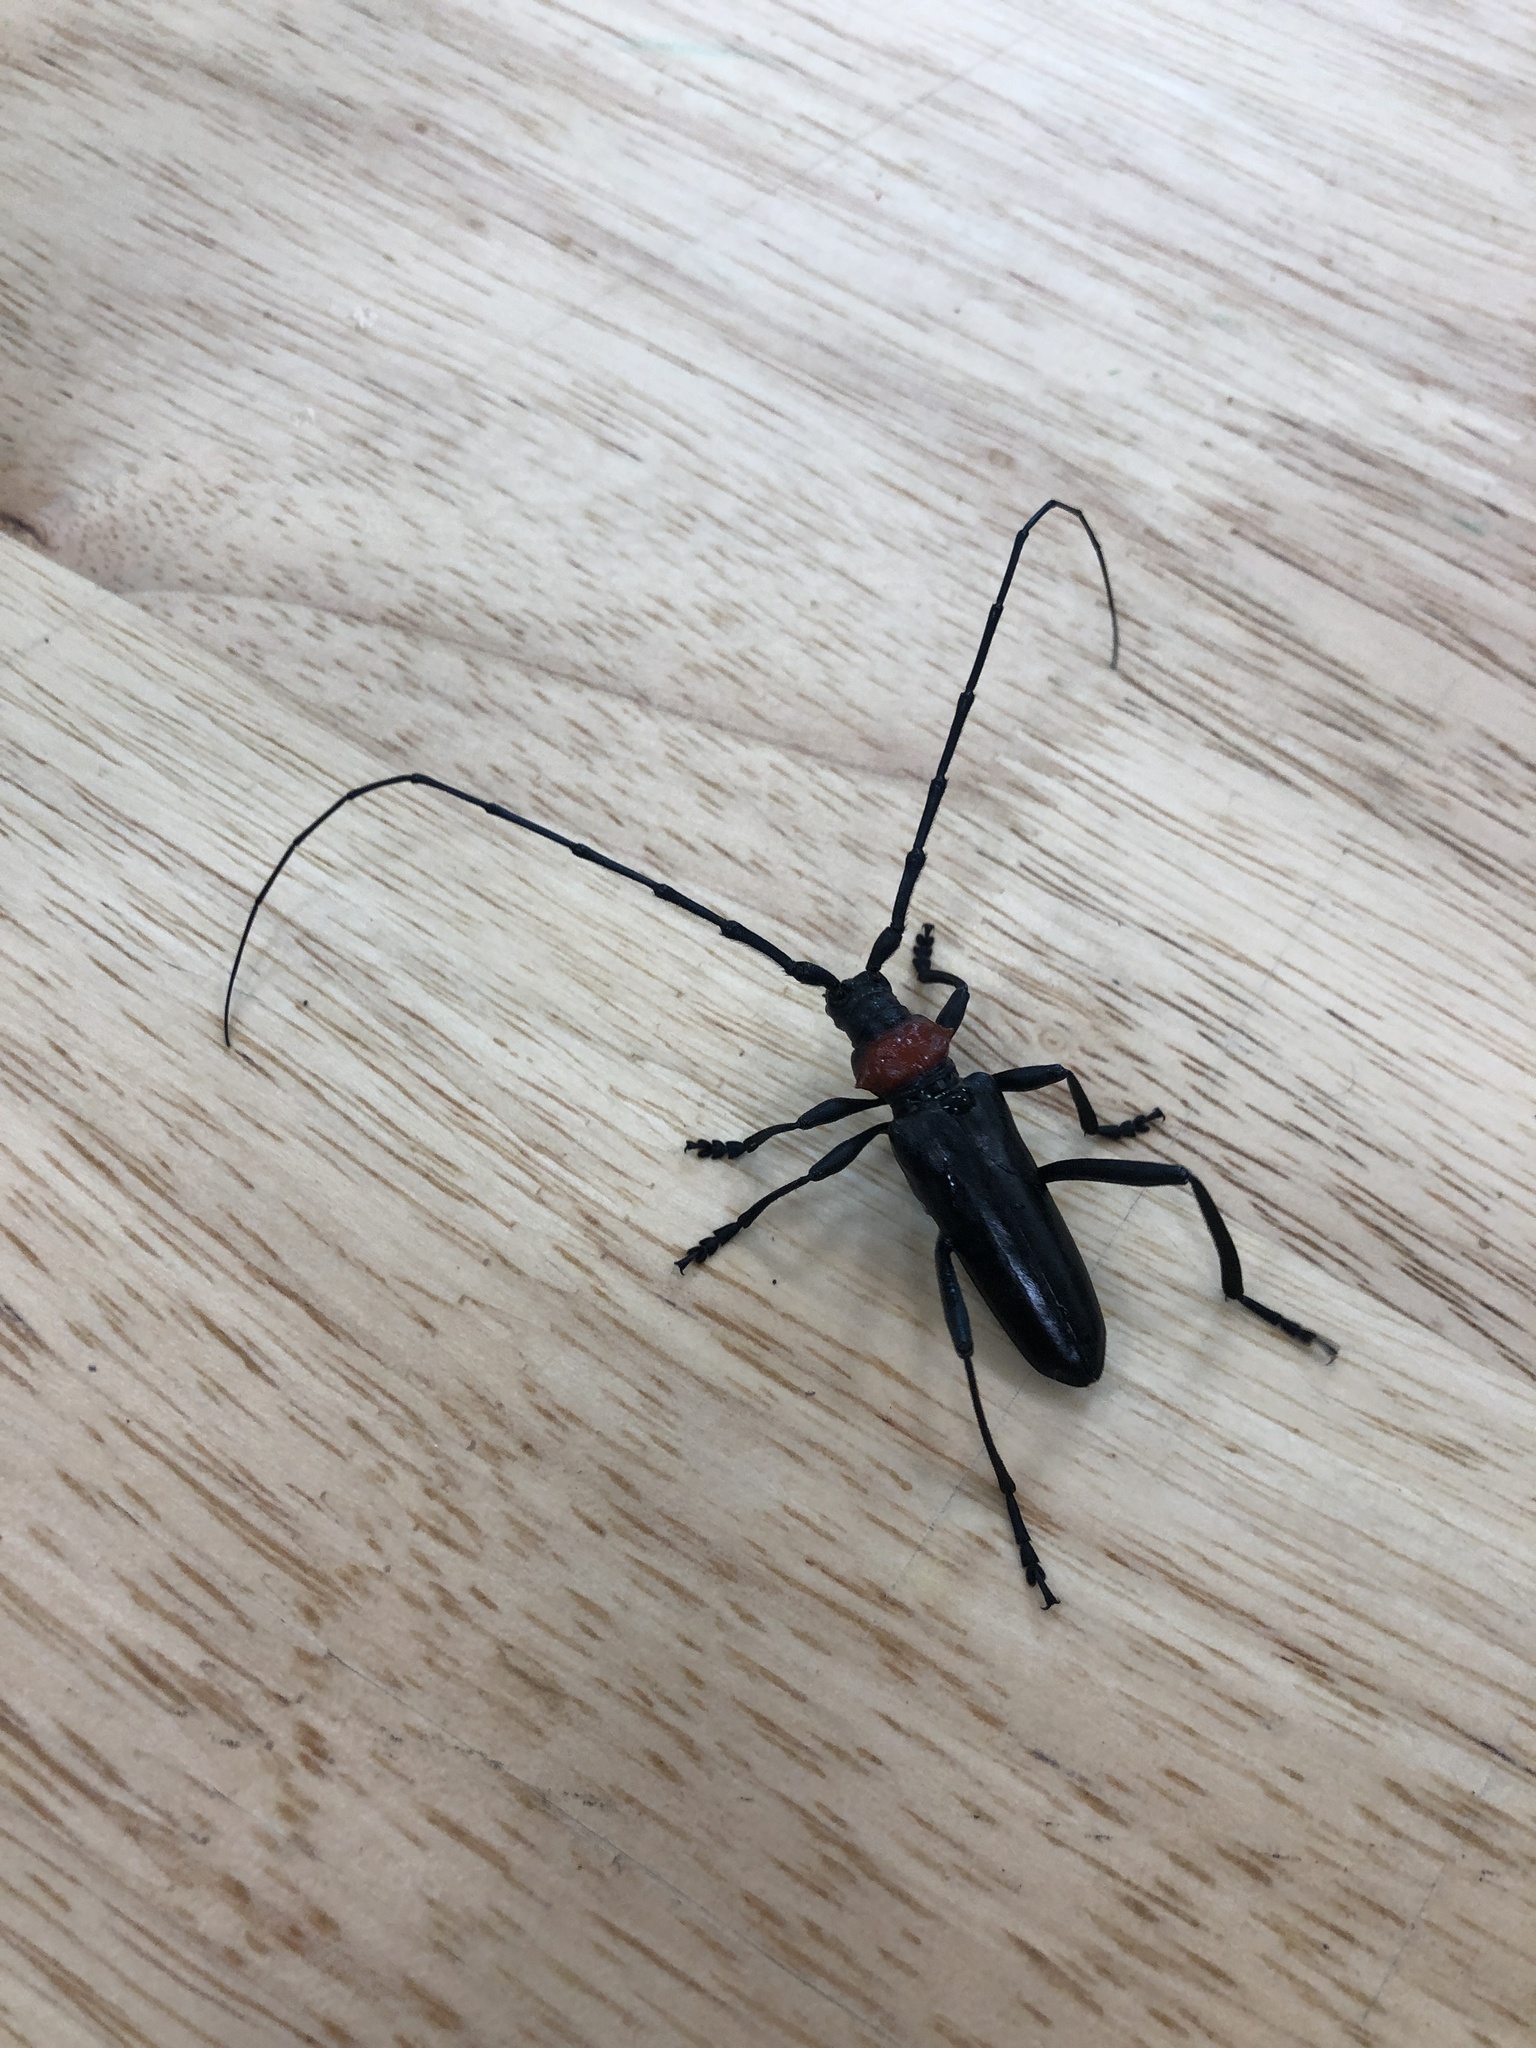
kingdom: Animalia
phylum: Arthropoda
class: Insecta
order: Coleoptera
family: Cerambycidae
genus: Aromia
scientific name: Aromia bungii
